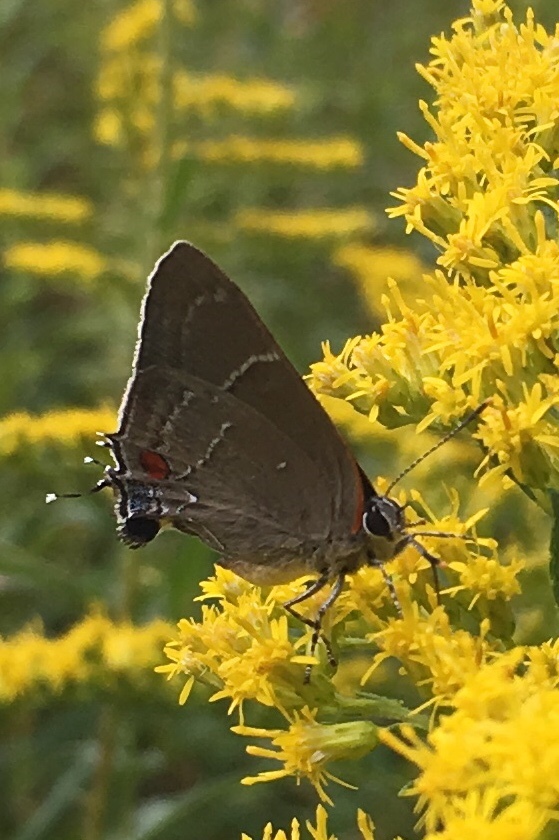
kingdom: Animalia
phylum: Arthropoda
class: Insecta
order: Lepidoptera
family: Lycaenidae
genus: Parrhasius
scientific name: Parrhasius m-album
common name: White m hairstreak
